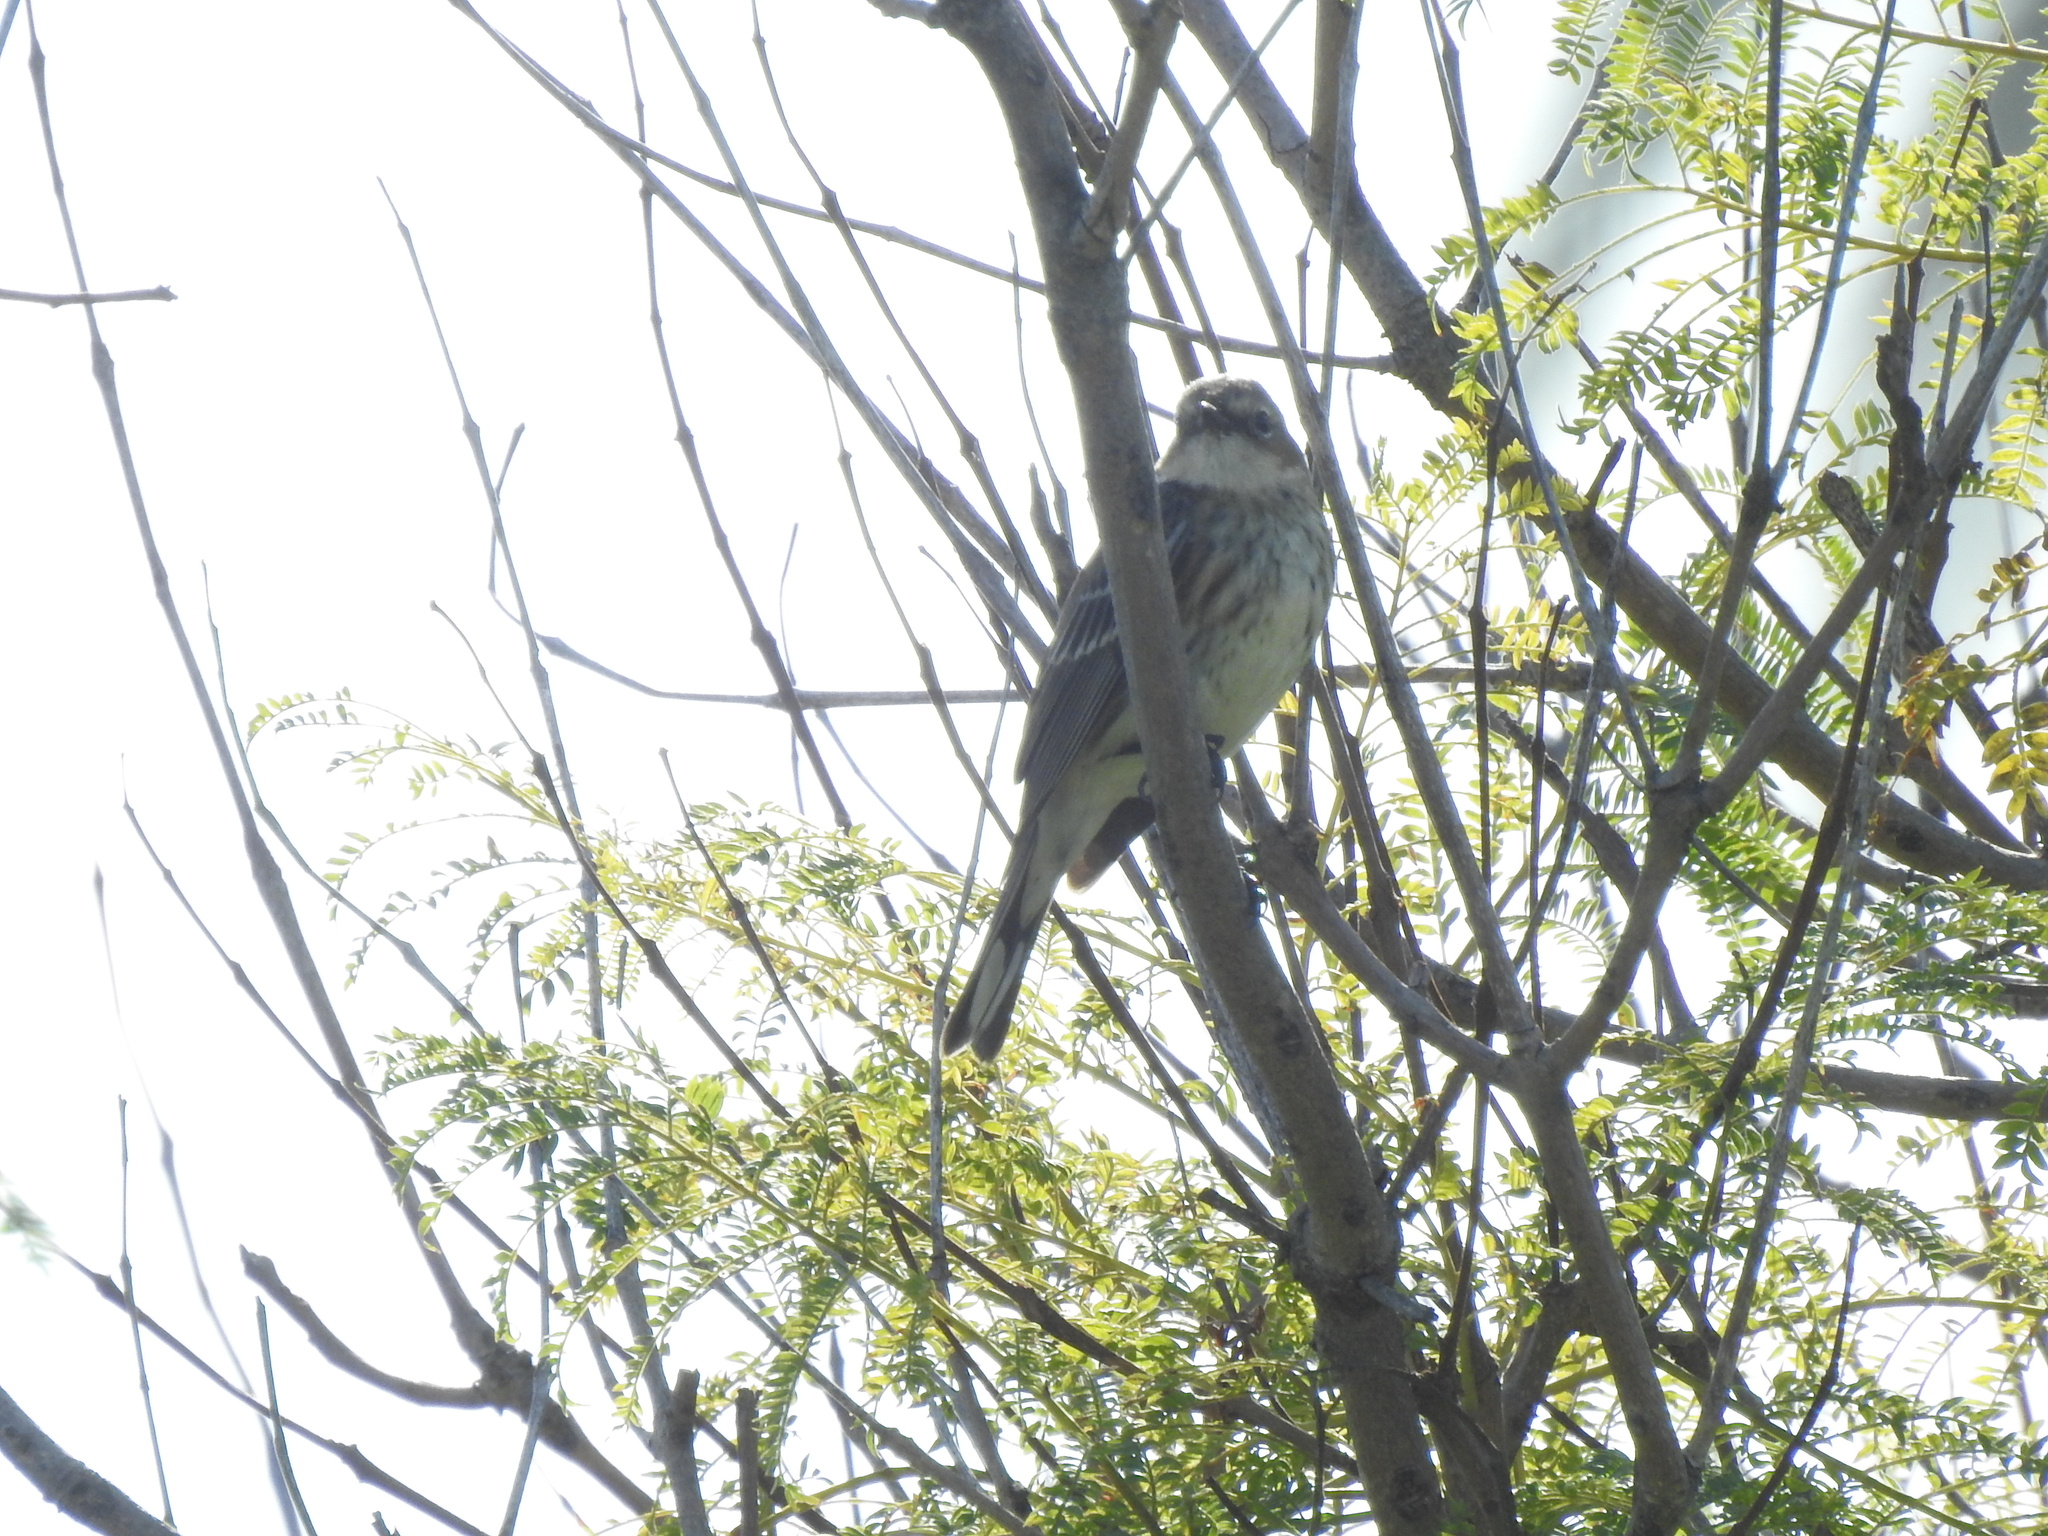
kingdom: Animalia
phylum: Chordata
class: Aves
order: Passeriformes
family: Parulidae
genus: Setophaga
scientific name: Setophaga coronata
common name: Myrtle warbler
